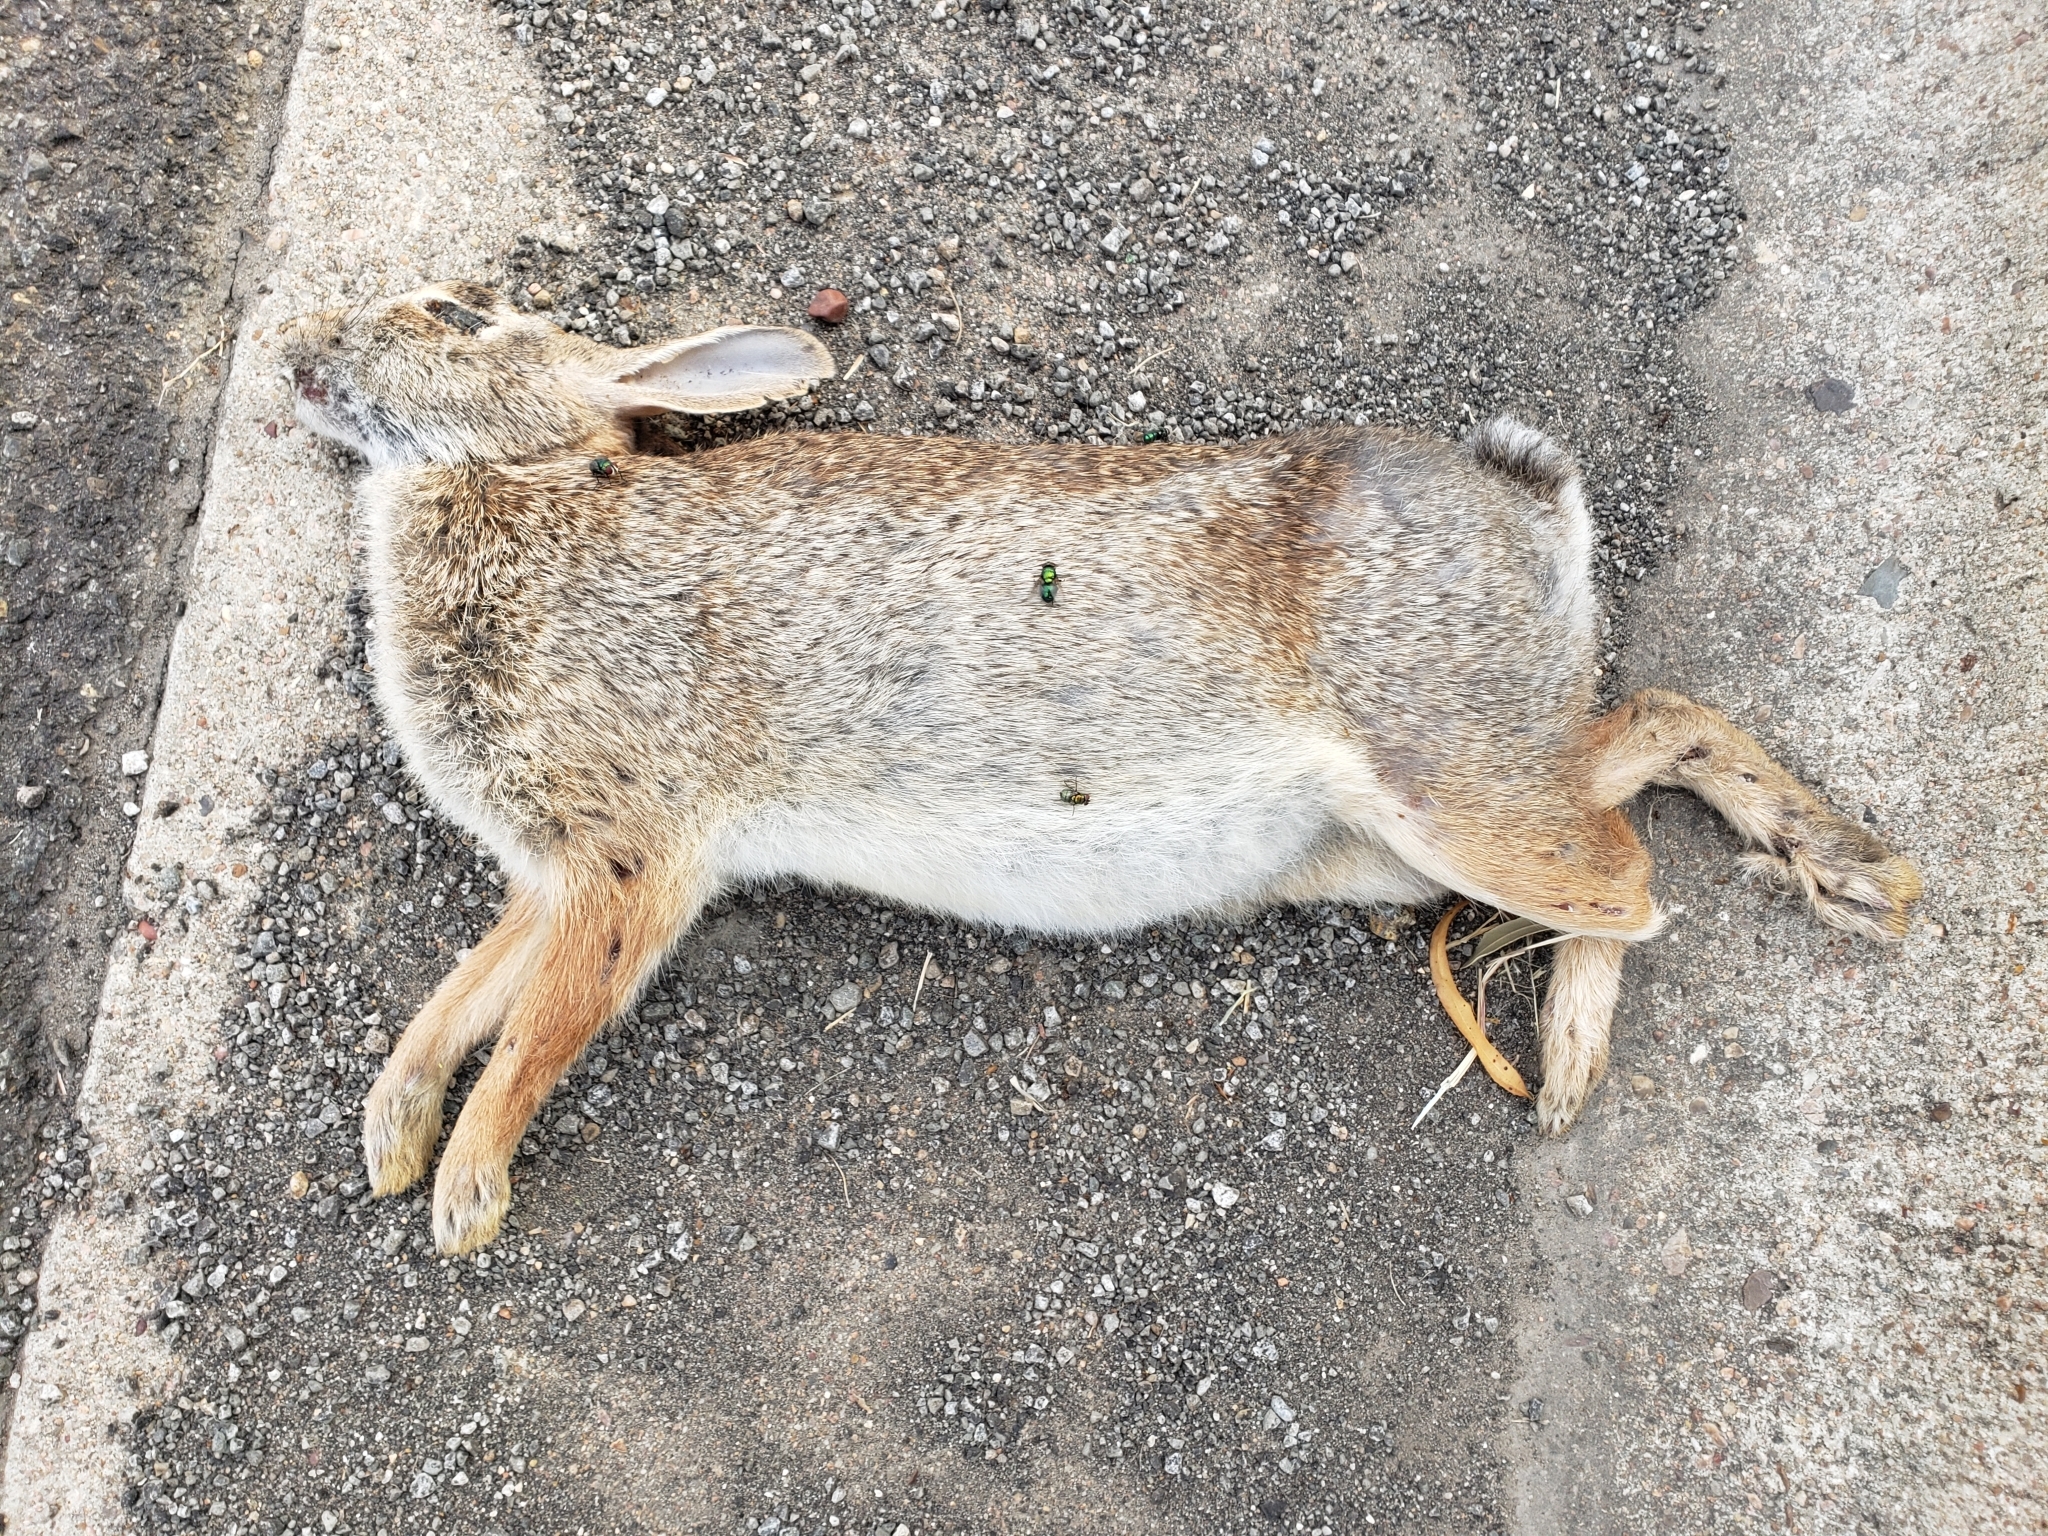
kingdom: Animalia
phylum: Chordata
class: Mammalia
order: Lagomorpha
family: Leporidae
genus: Sylvilagus
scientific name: Sylvilagus floridanus
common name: Eastern cottontail
